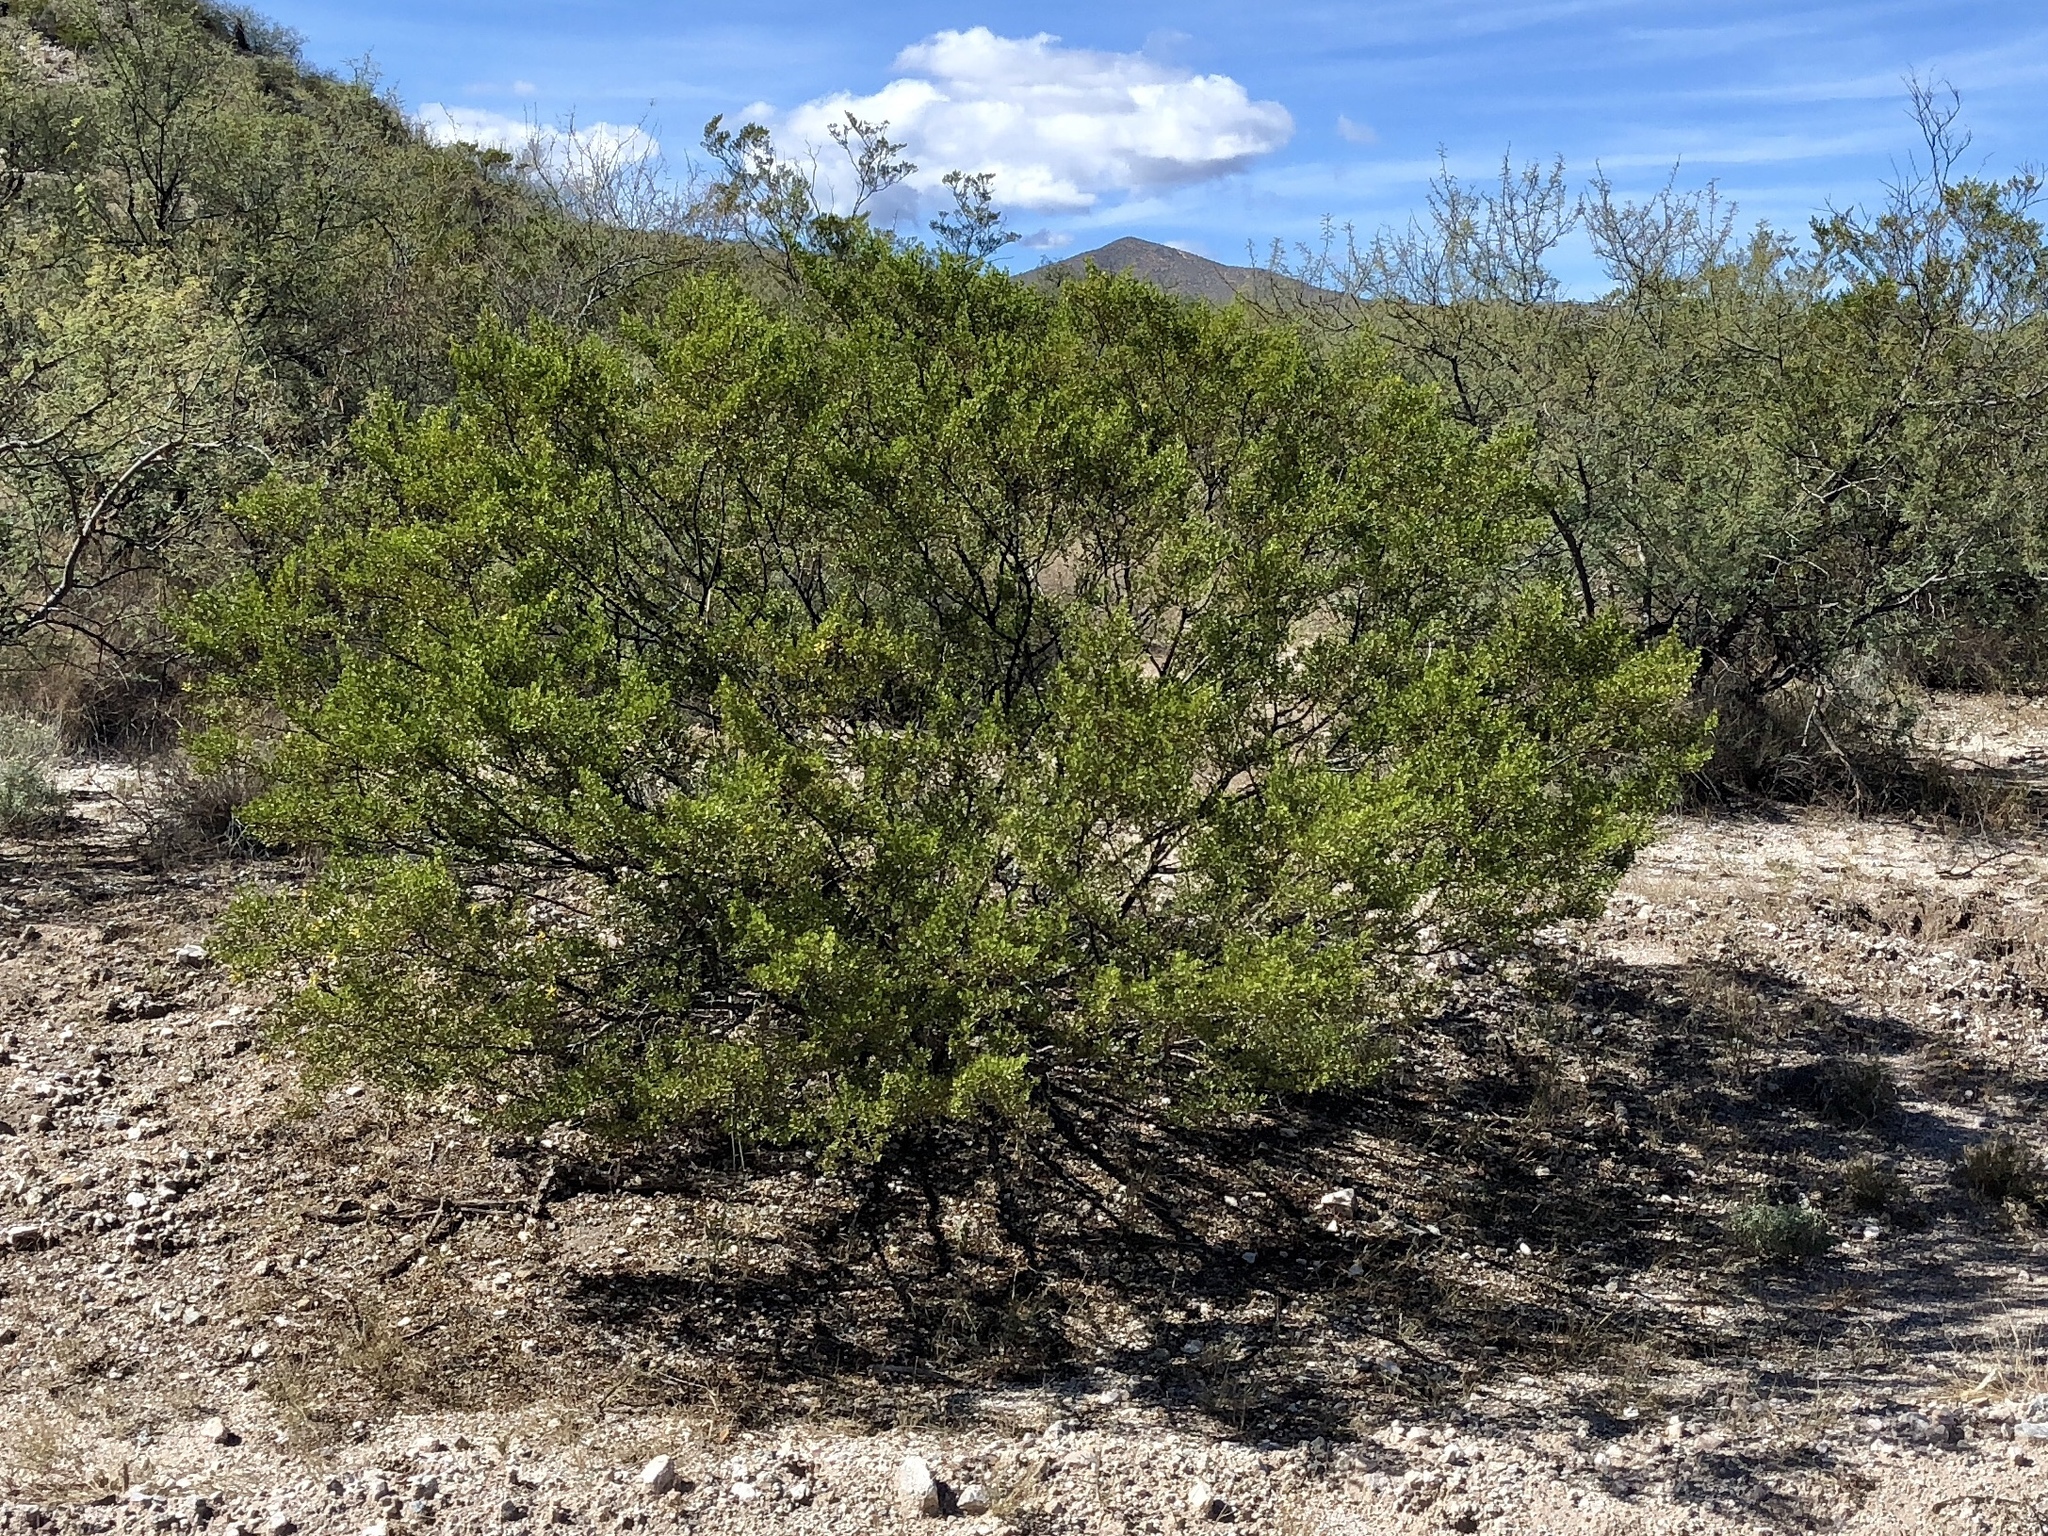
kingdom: Plantae
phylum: Tracheophyta
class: Magnoliopsida
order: Zygophyllales
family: Zygophyllaceae
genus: Larrea
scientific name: Larrea tridentata
